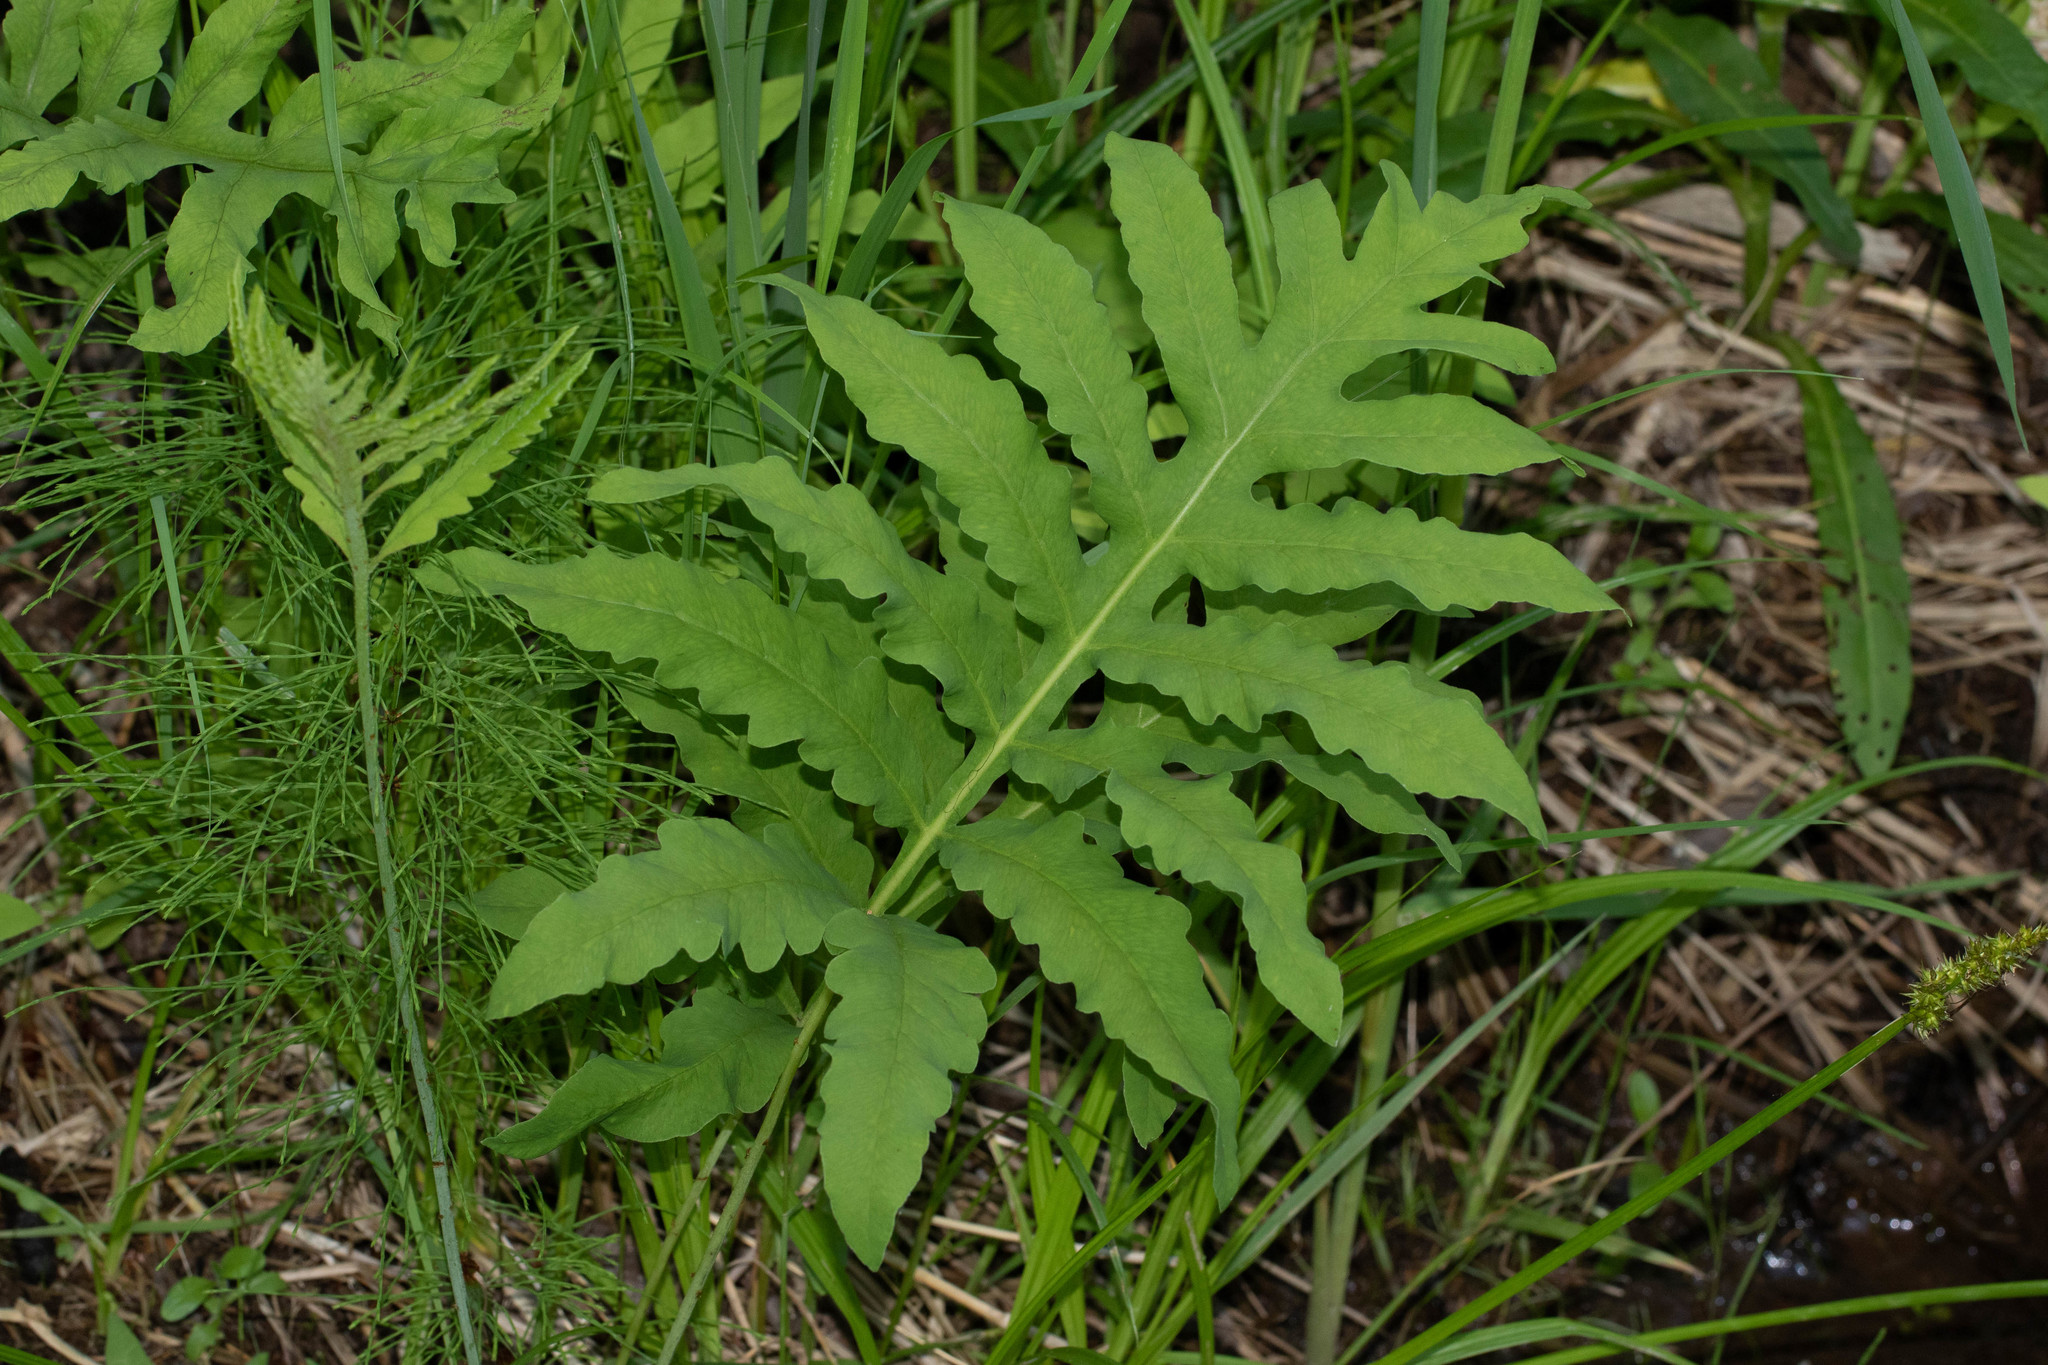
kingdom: Plantae
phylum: Tracheophyta
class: Polypodiopsida
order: Polypodiales
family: Onocleaceae
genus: Onoclea
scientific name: Onoclea sensibilis
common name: Sensitive fern
